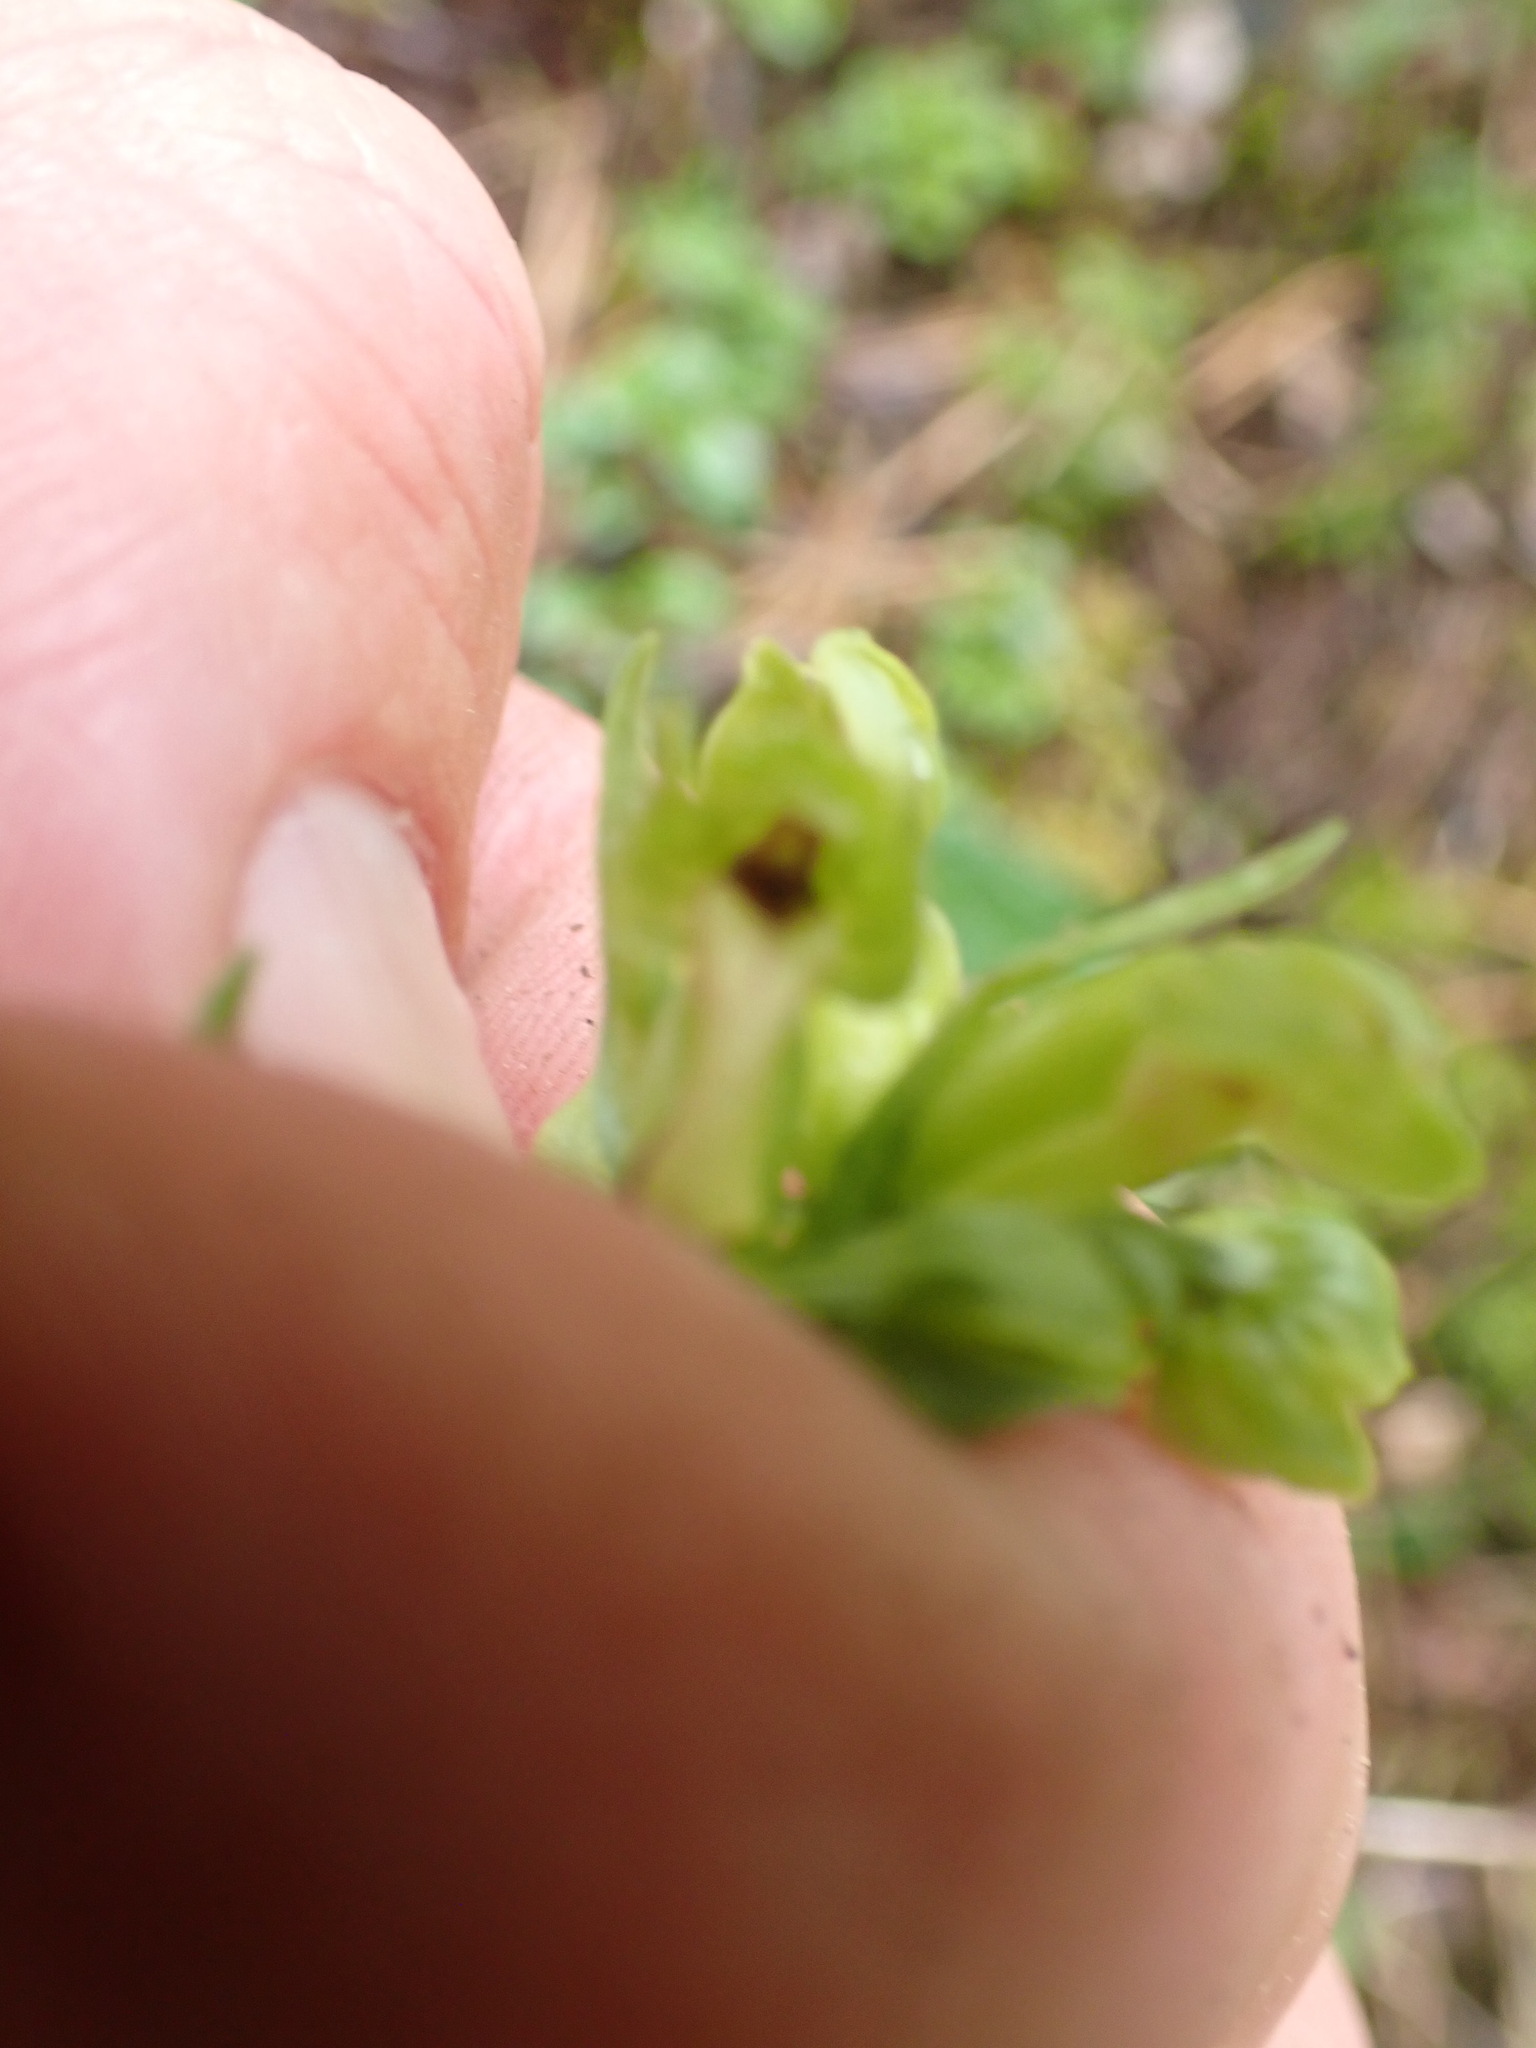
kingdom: Plantae
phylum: Tracheophyta
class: Liliopsida
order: Asparagales
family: Orchidaceae
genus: Dactylorhiza
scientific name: Dactylorhiza viridis
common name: Longbract frog orchid
